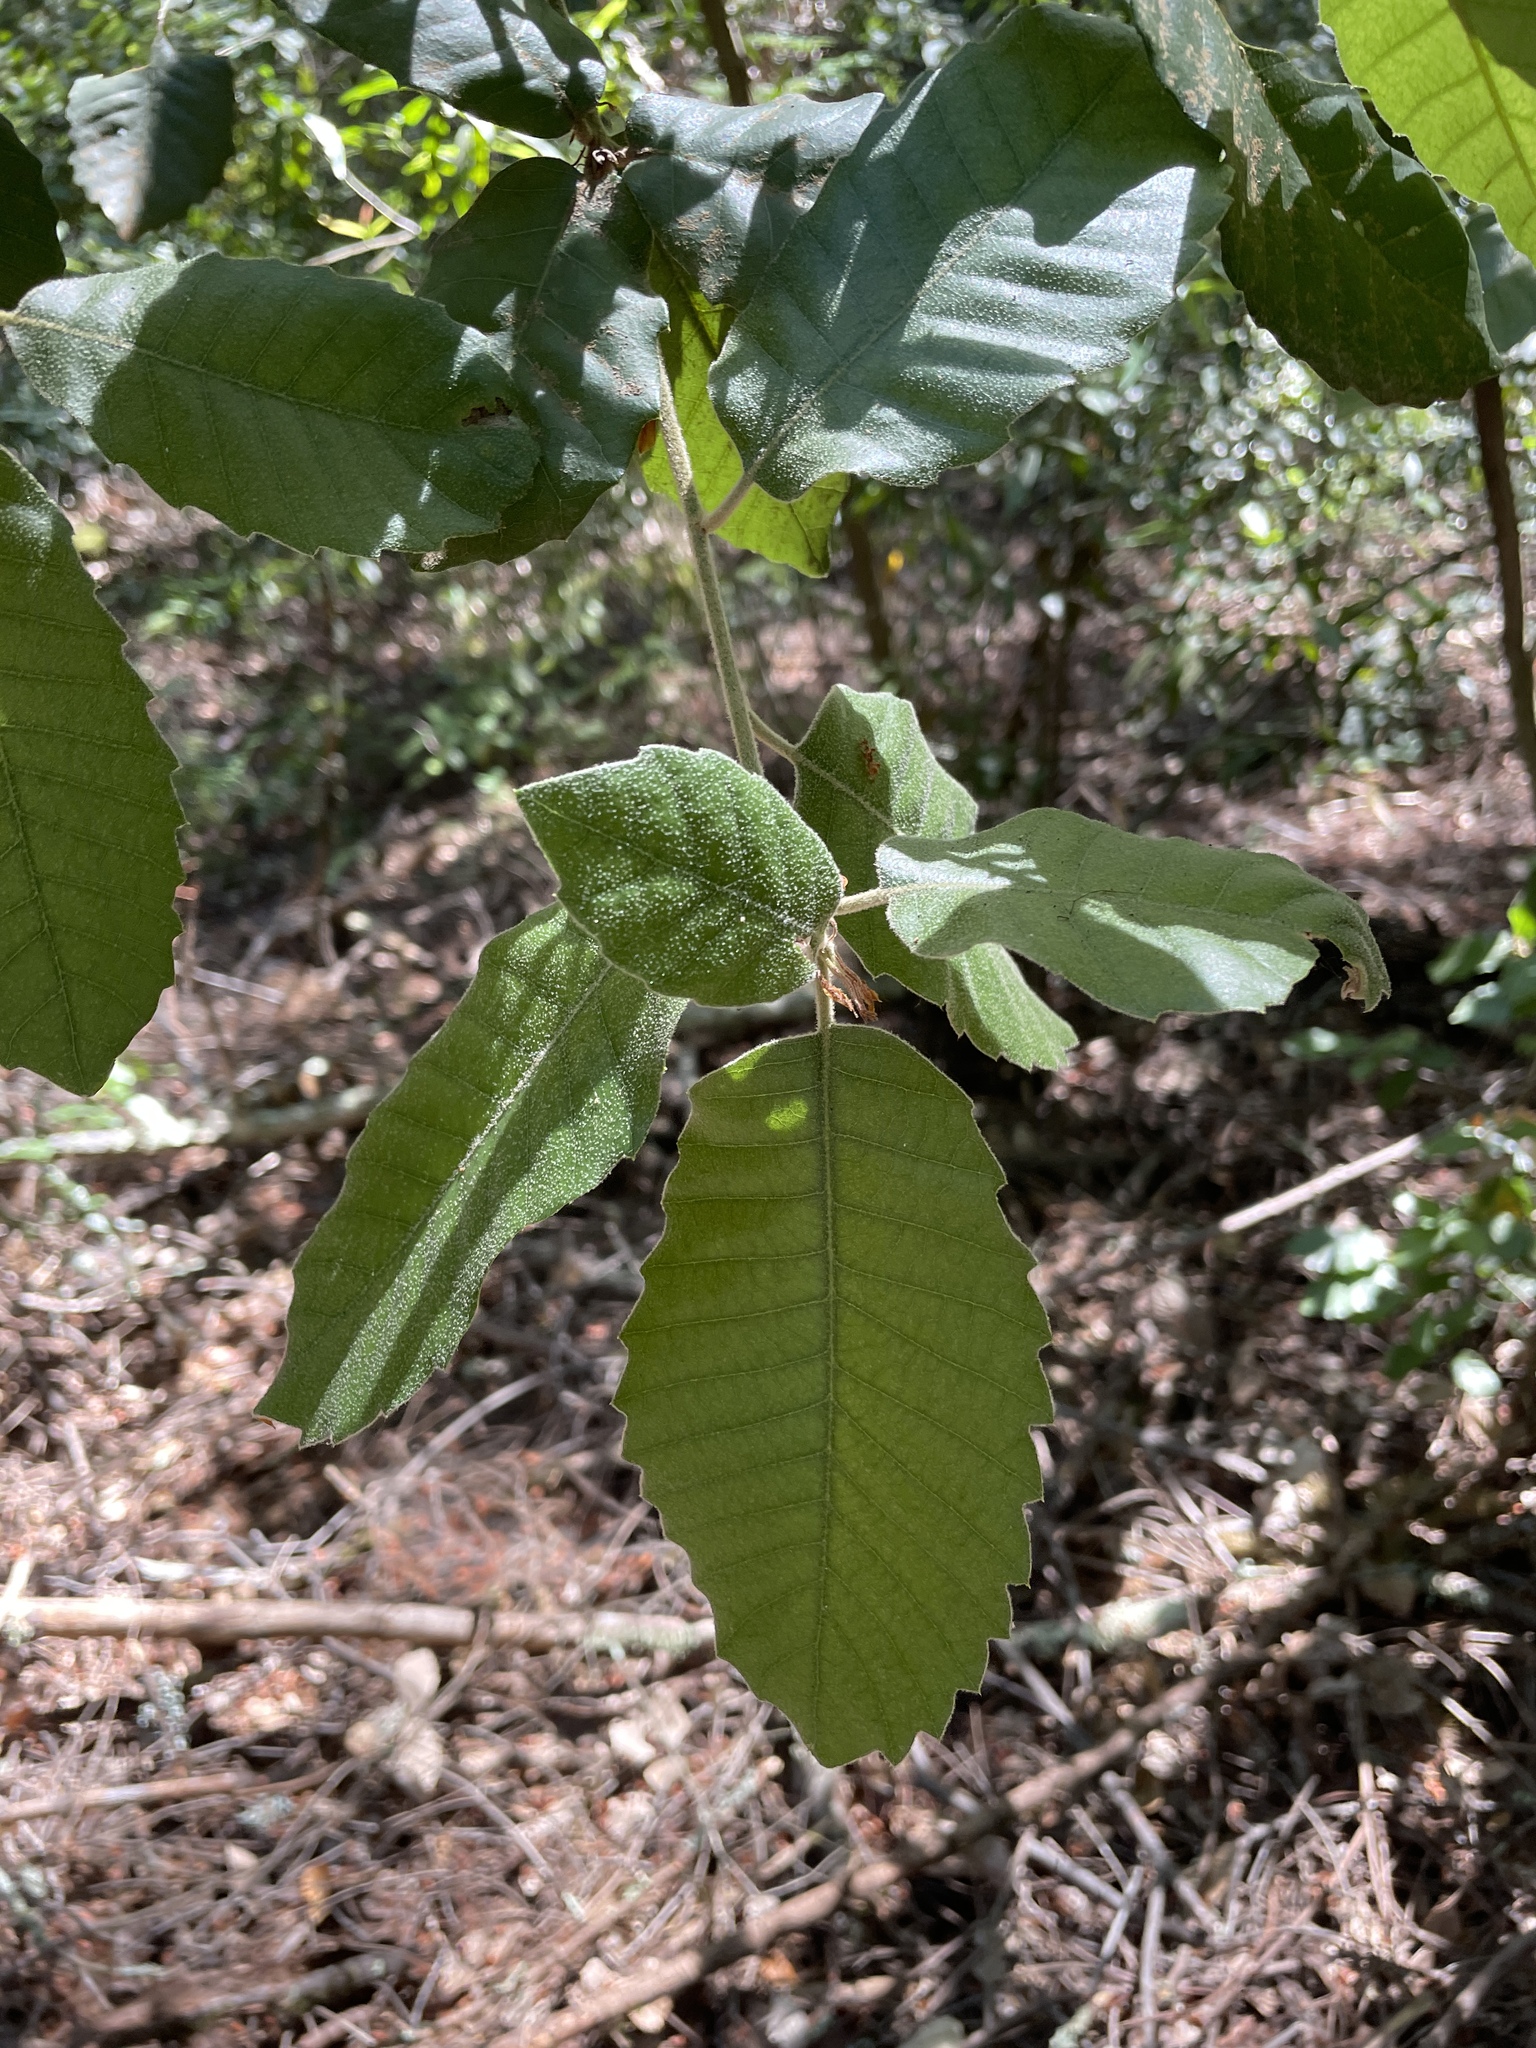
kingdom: Plantae
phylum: Tracheophyta
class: Magnoliopsida
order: Fagales
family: Fagaceae
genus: Notholithocarpus
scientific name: Notholithocarpus densiflorus
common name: Tan bark oak
